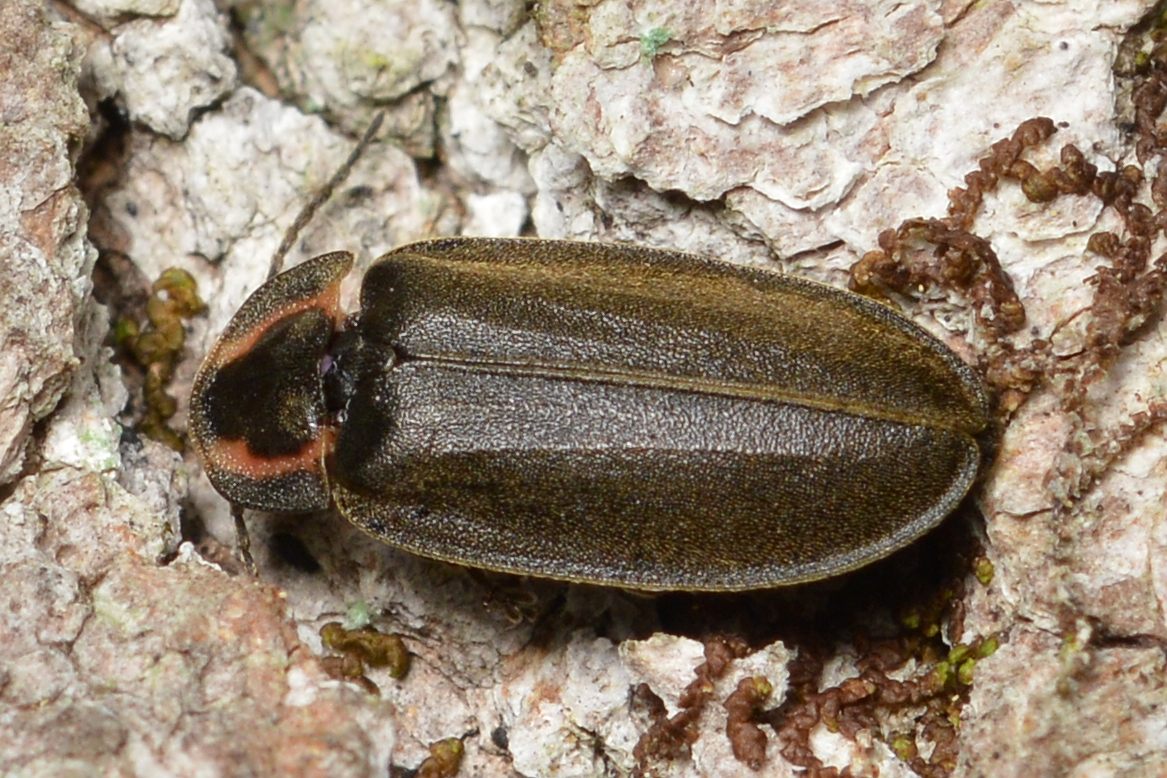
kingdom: Animalia
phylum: Arthropoda
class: Insecta
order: Coleoptera
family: Lampyridae
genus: Photinus
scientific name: Photinus corrusca
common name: Winter firefly
